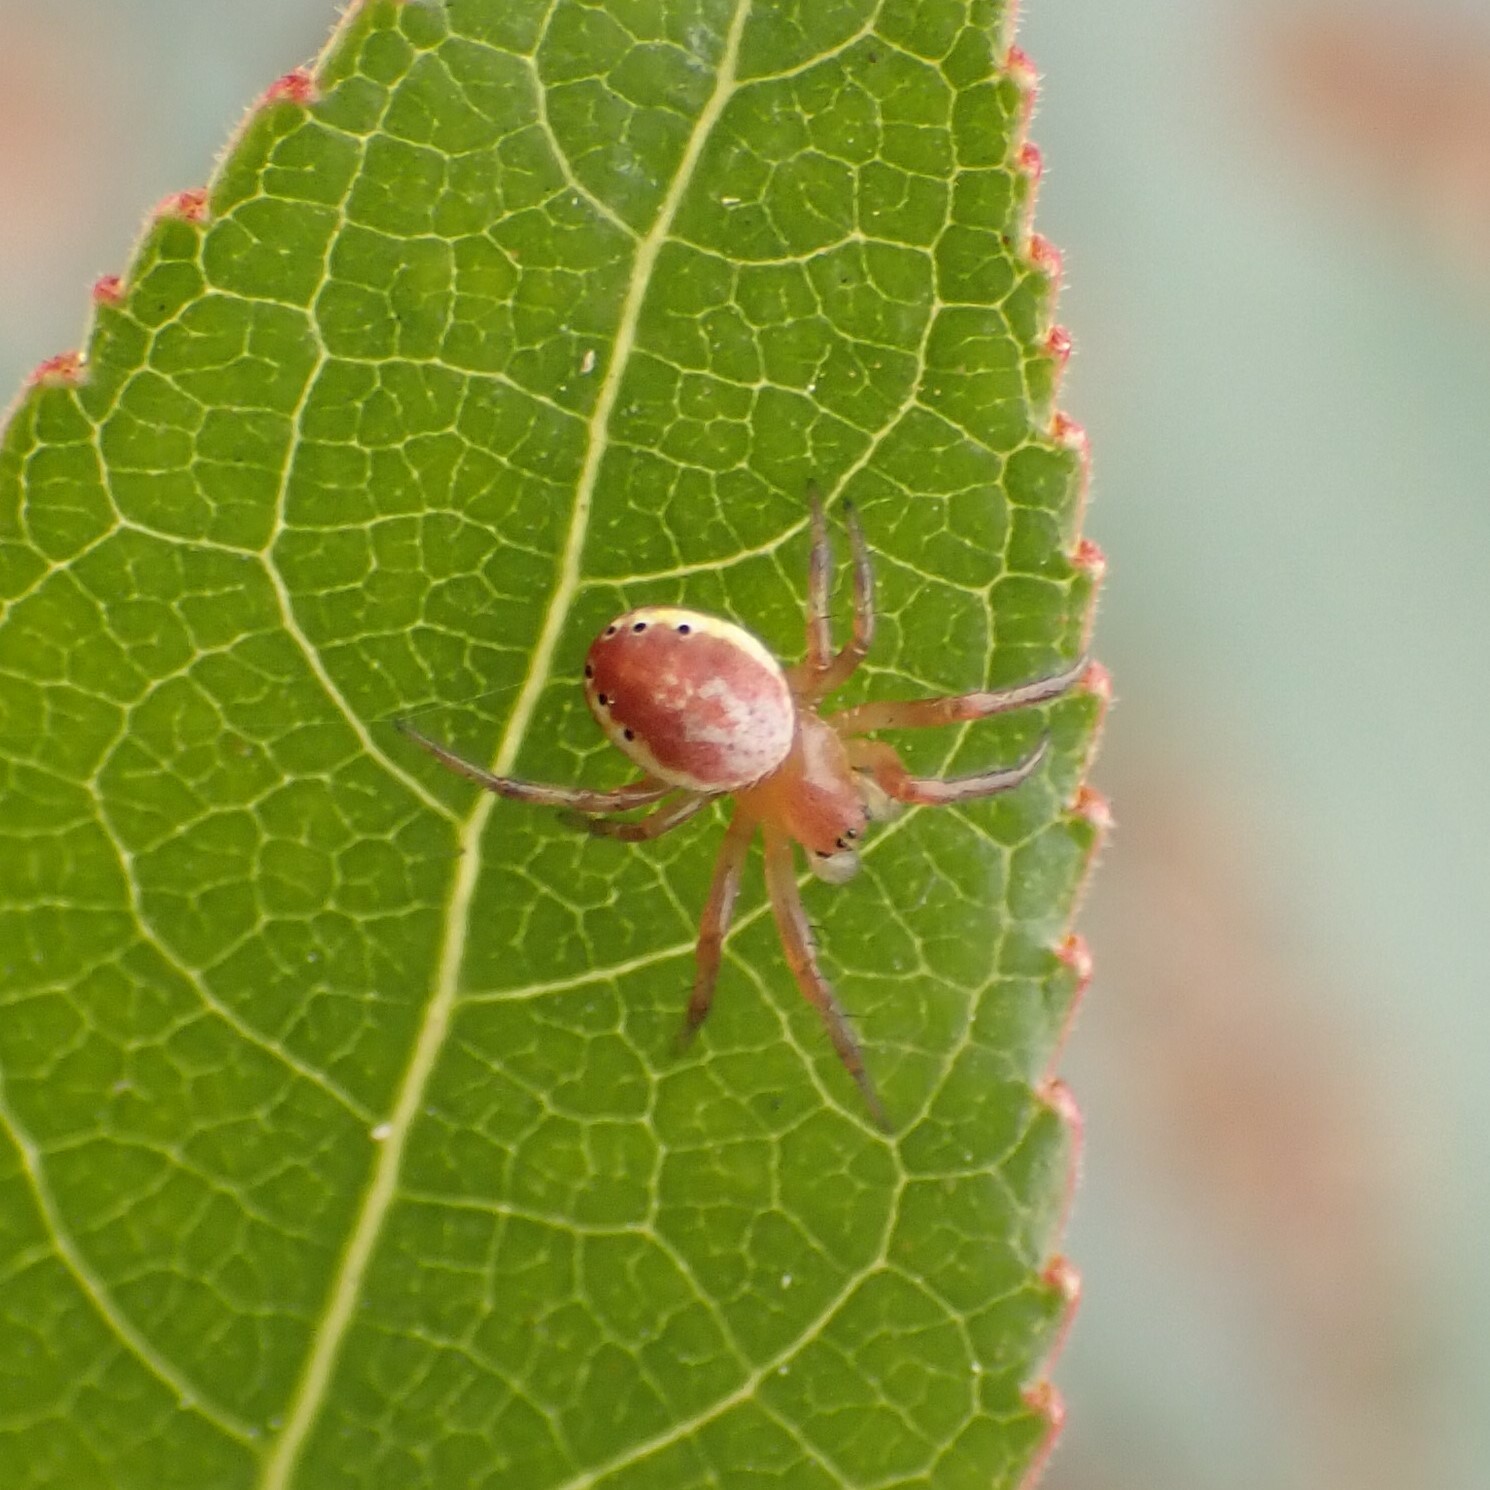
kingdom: Animalia
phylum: Arthropoda
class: Arachnida
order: Araneae
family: Araneidae
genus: Araniella
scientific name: Araniella displicata
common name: Sixspotted orb weaver
